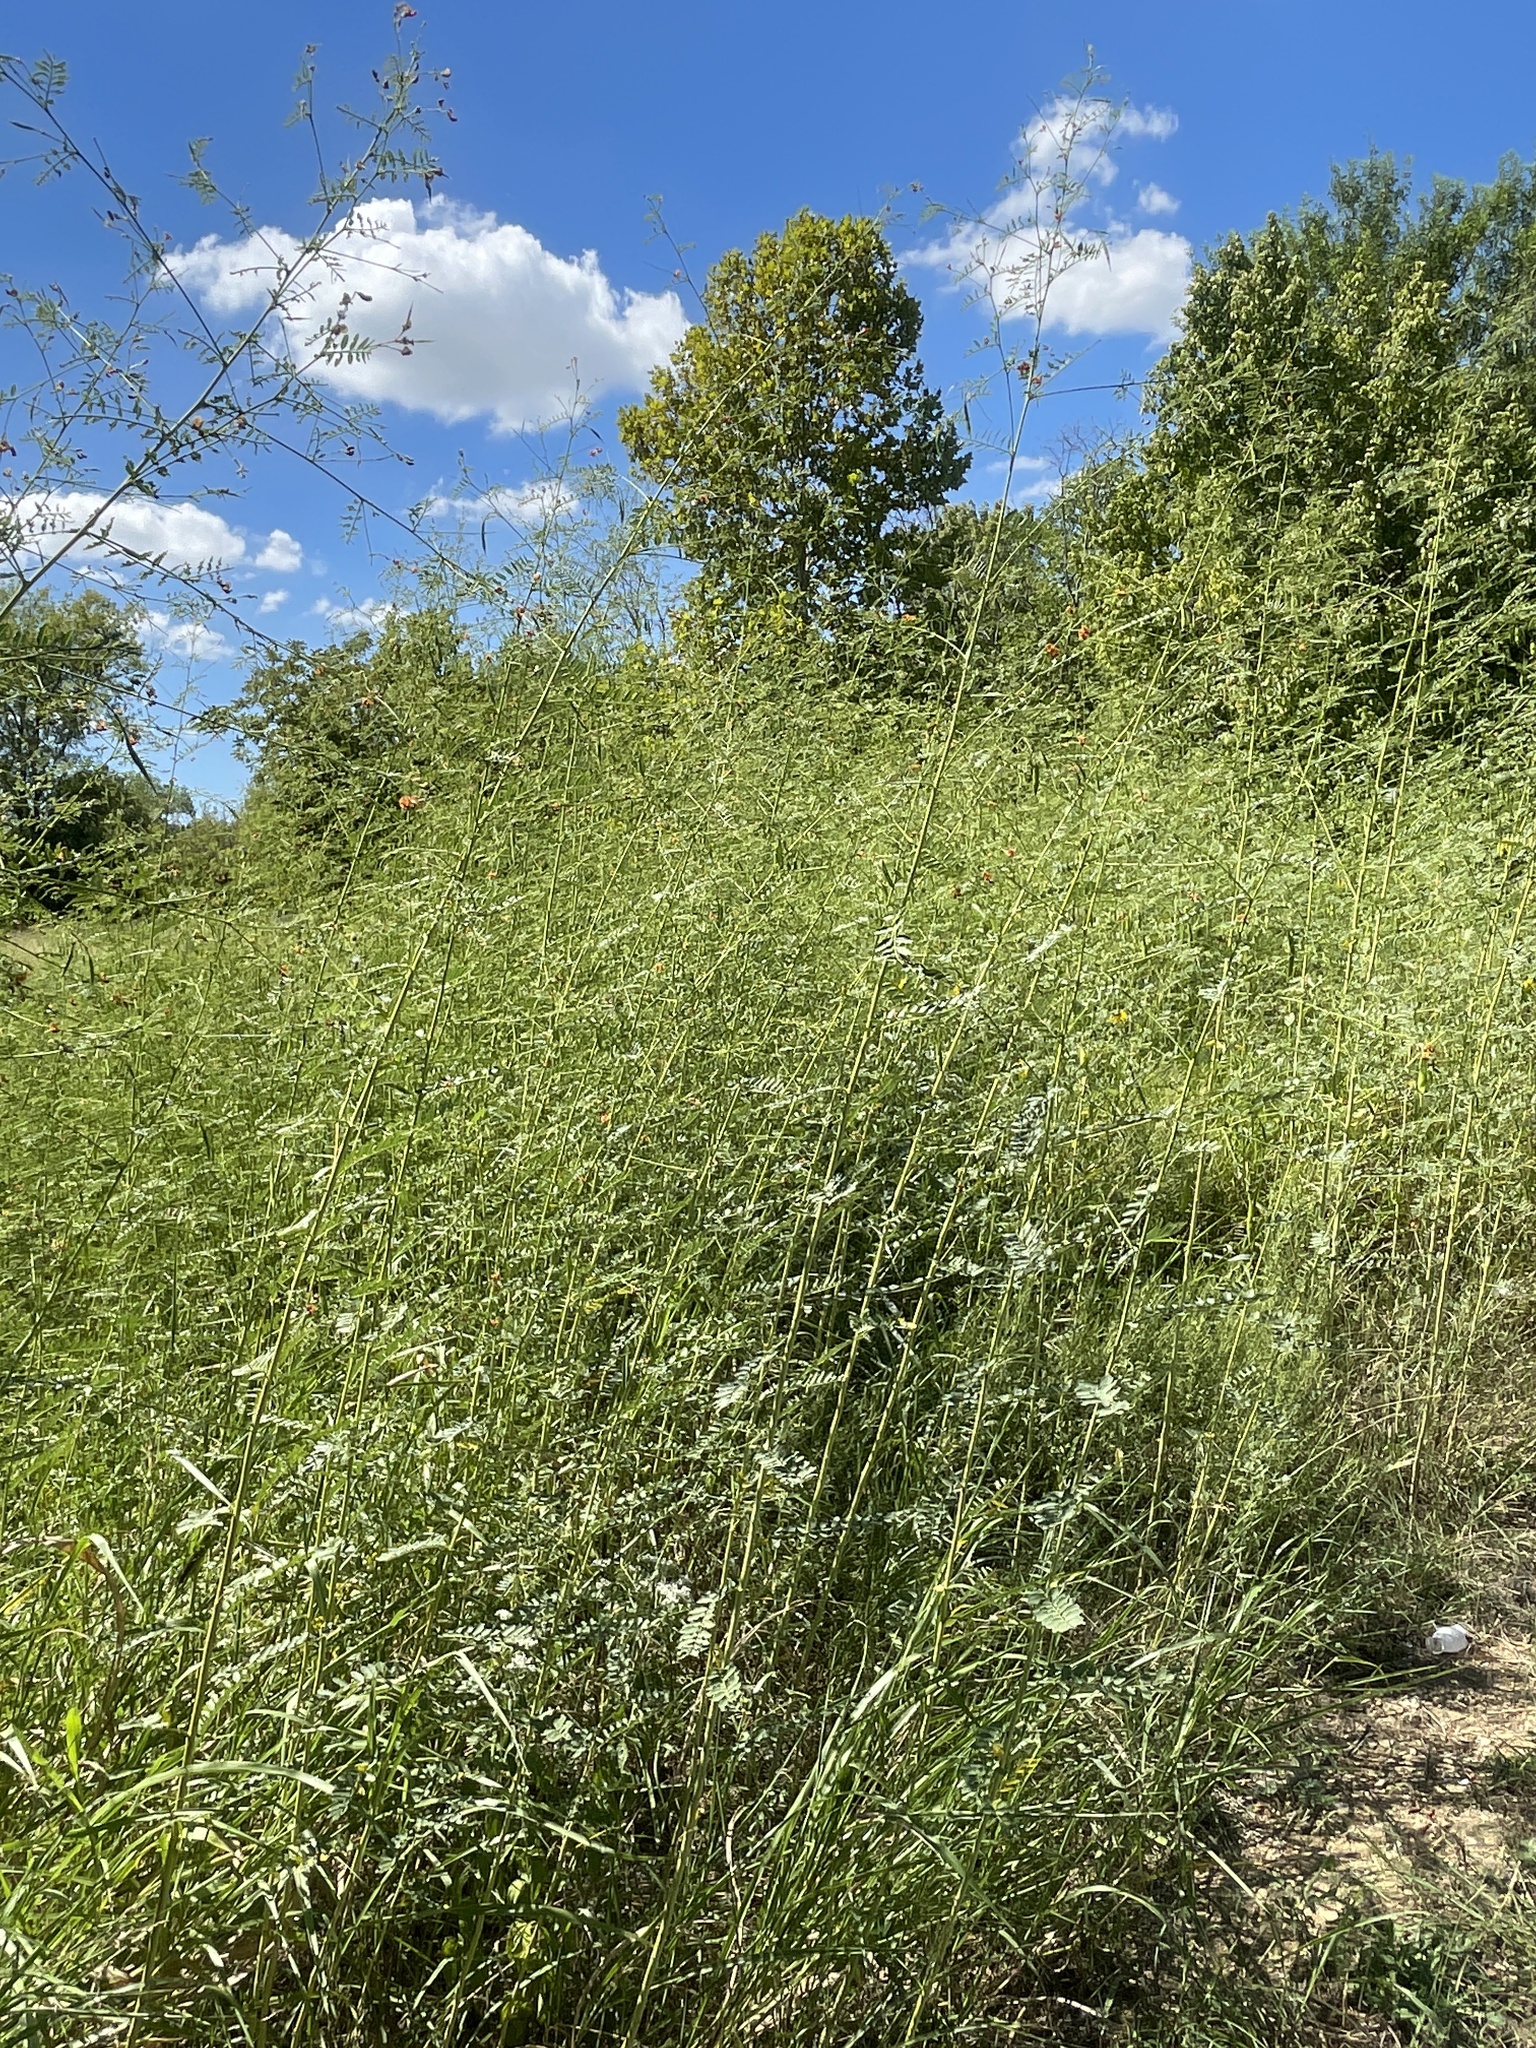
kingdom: Plantae
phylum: Tracheophyta
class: Magnoliopsida
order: Fabales
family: Fabaceae
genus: Sesbania
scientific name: Sesbania vesicaria
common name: Bagpod
